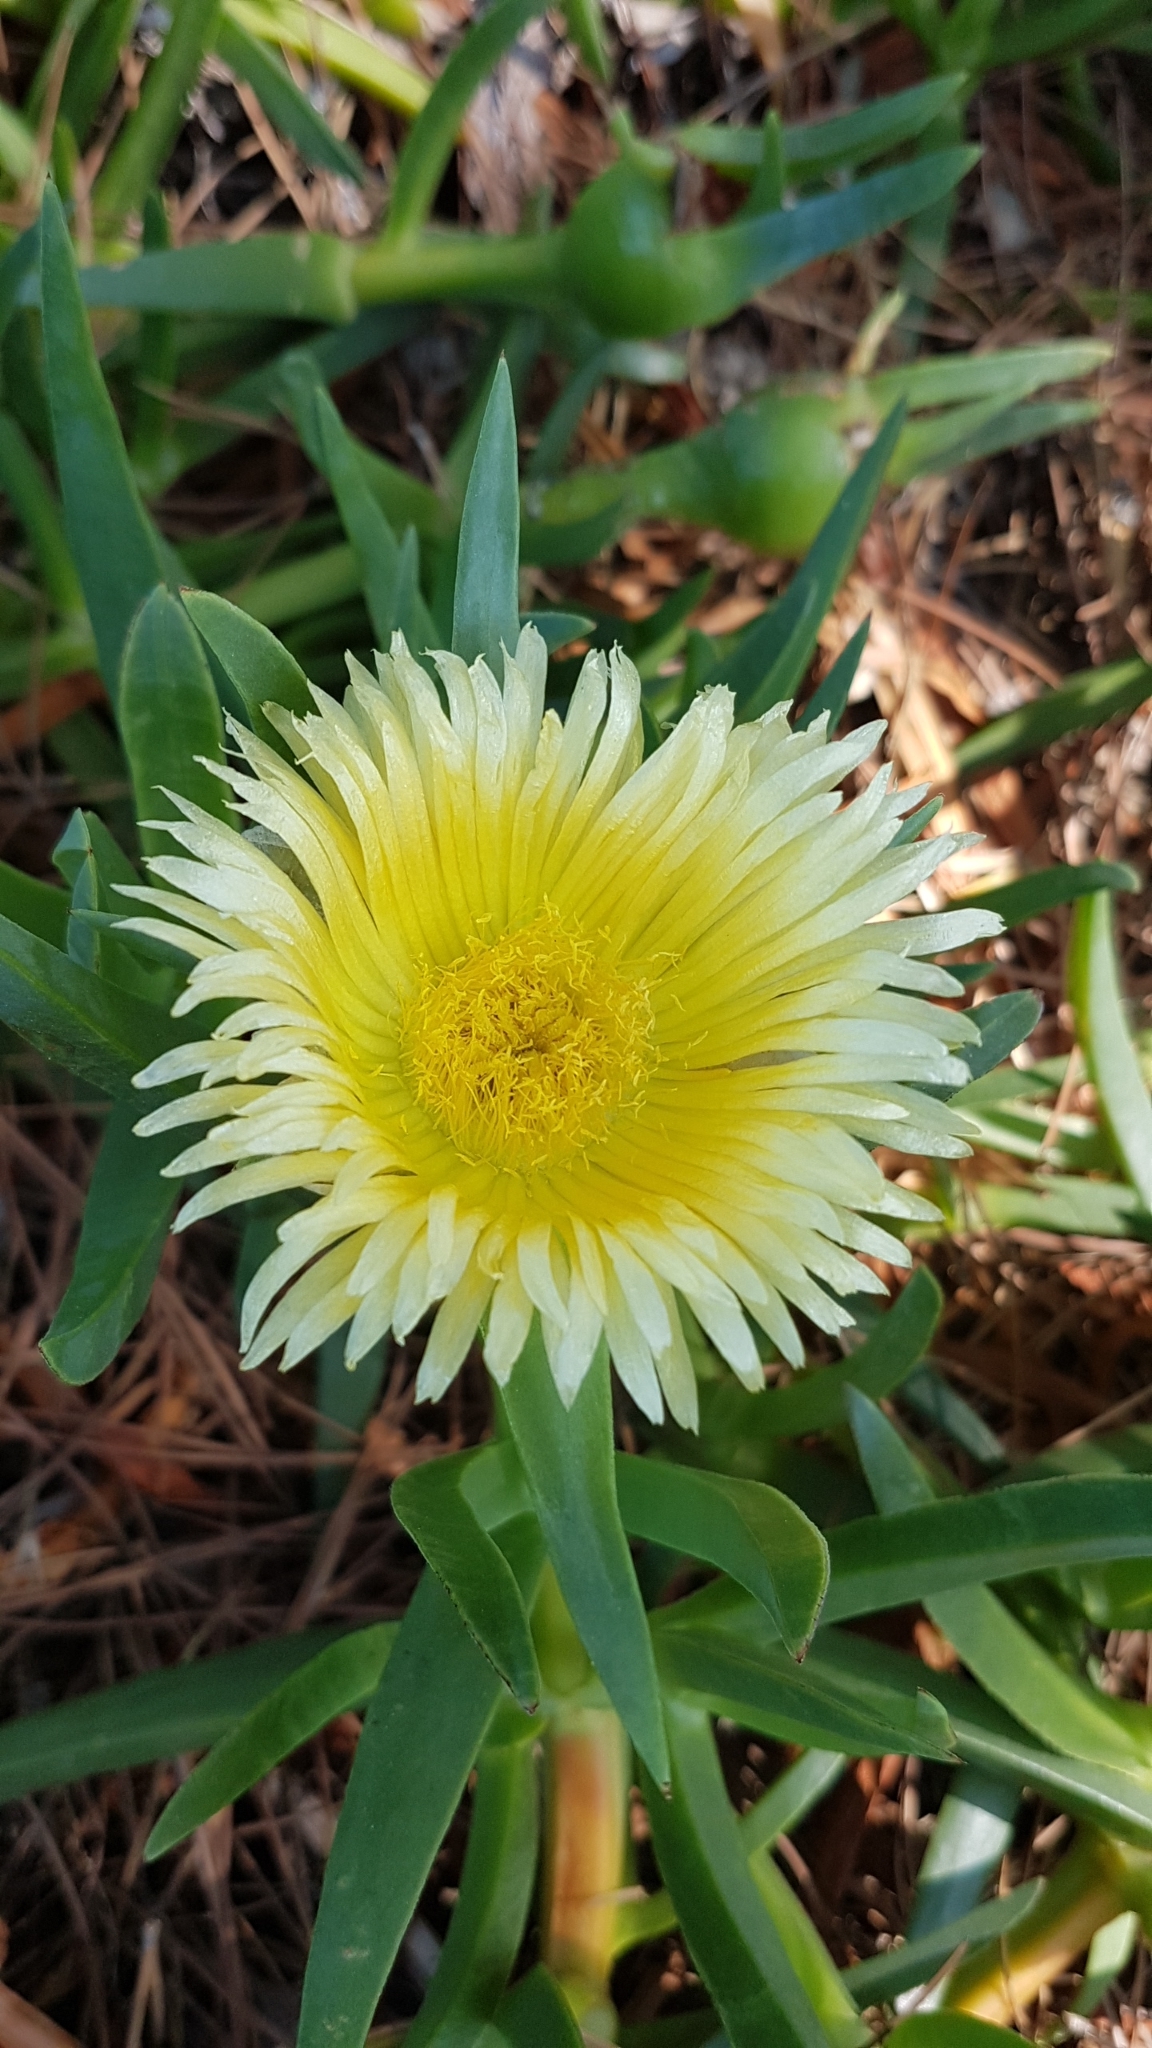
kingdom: Plantae
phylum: Tracheophyta
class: Magnoliopsida
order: Caryophyllales
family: Aizoaceae
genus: Carpobrotus
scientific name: Carpobrotus edulis
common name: Hottentot-fig
